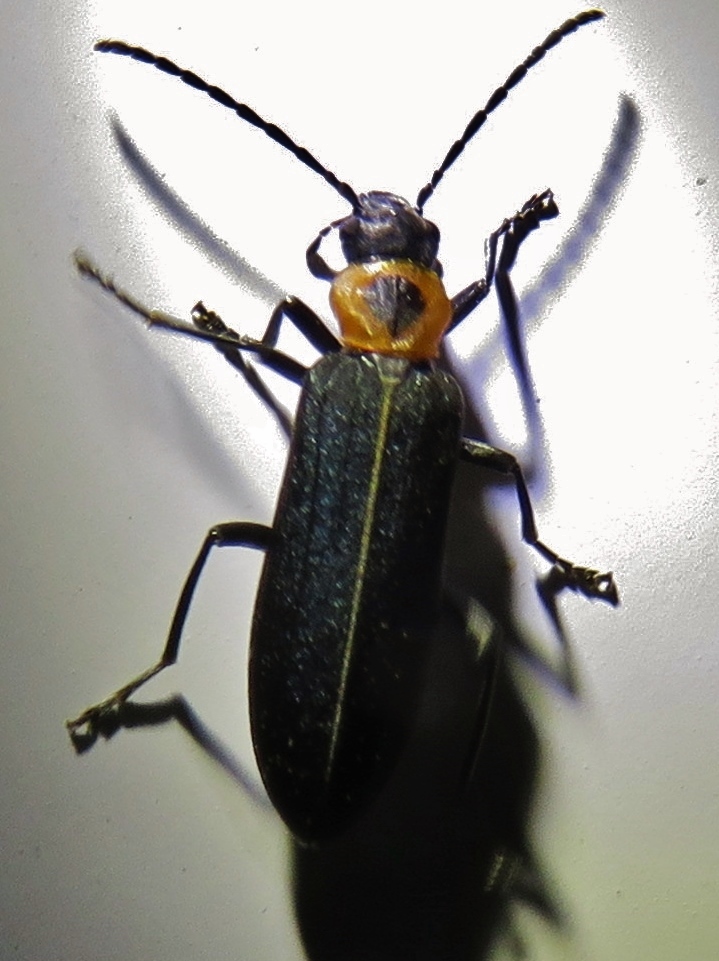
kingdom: Animalia
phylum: Arthropoda
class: Insecta
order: Coleoptera
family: Oedemeridae
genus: Ischnomera
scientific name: Ischnomera
